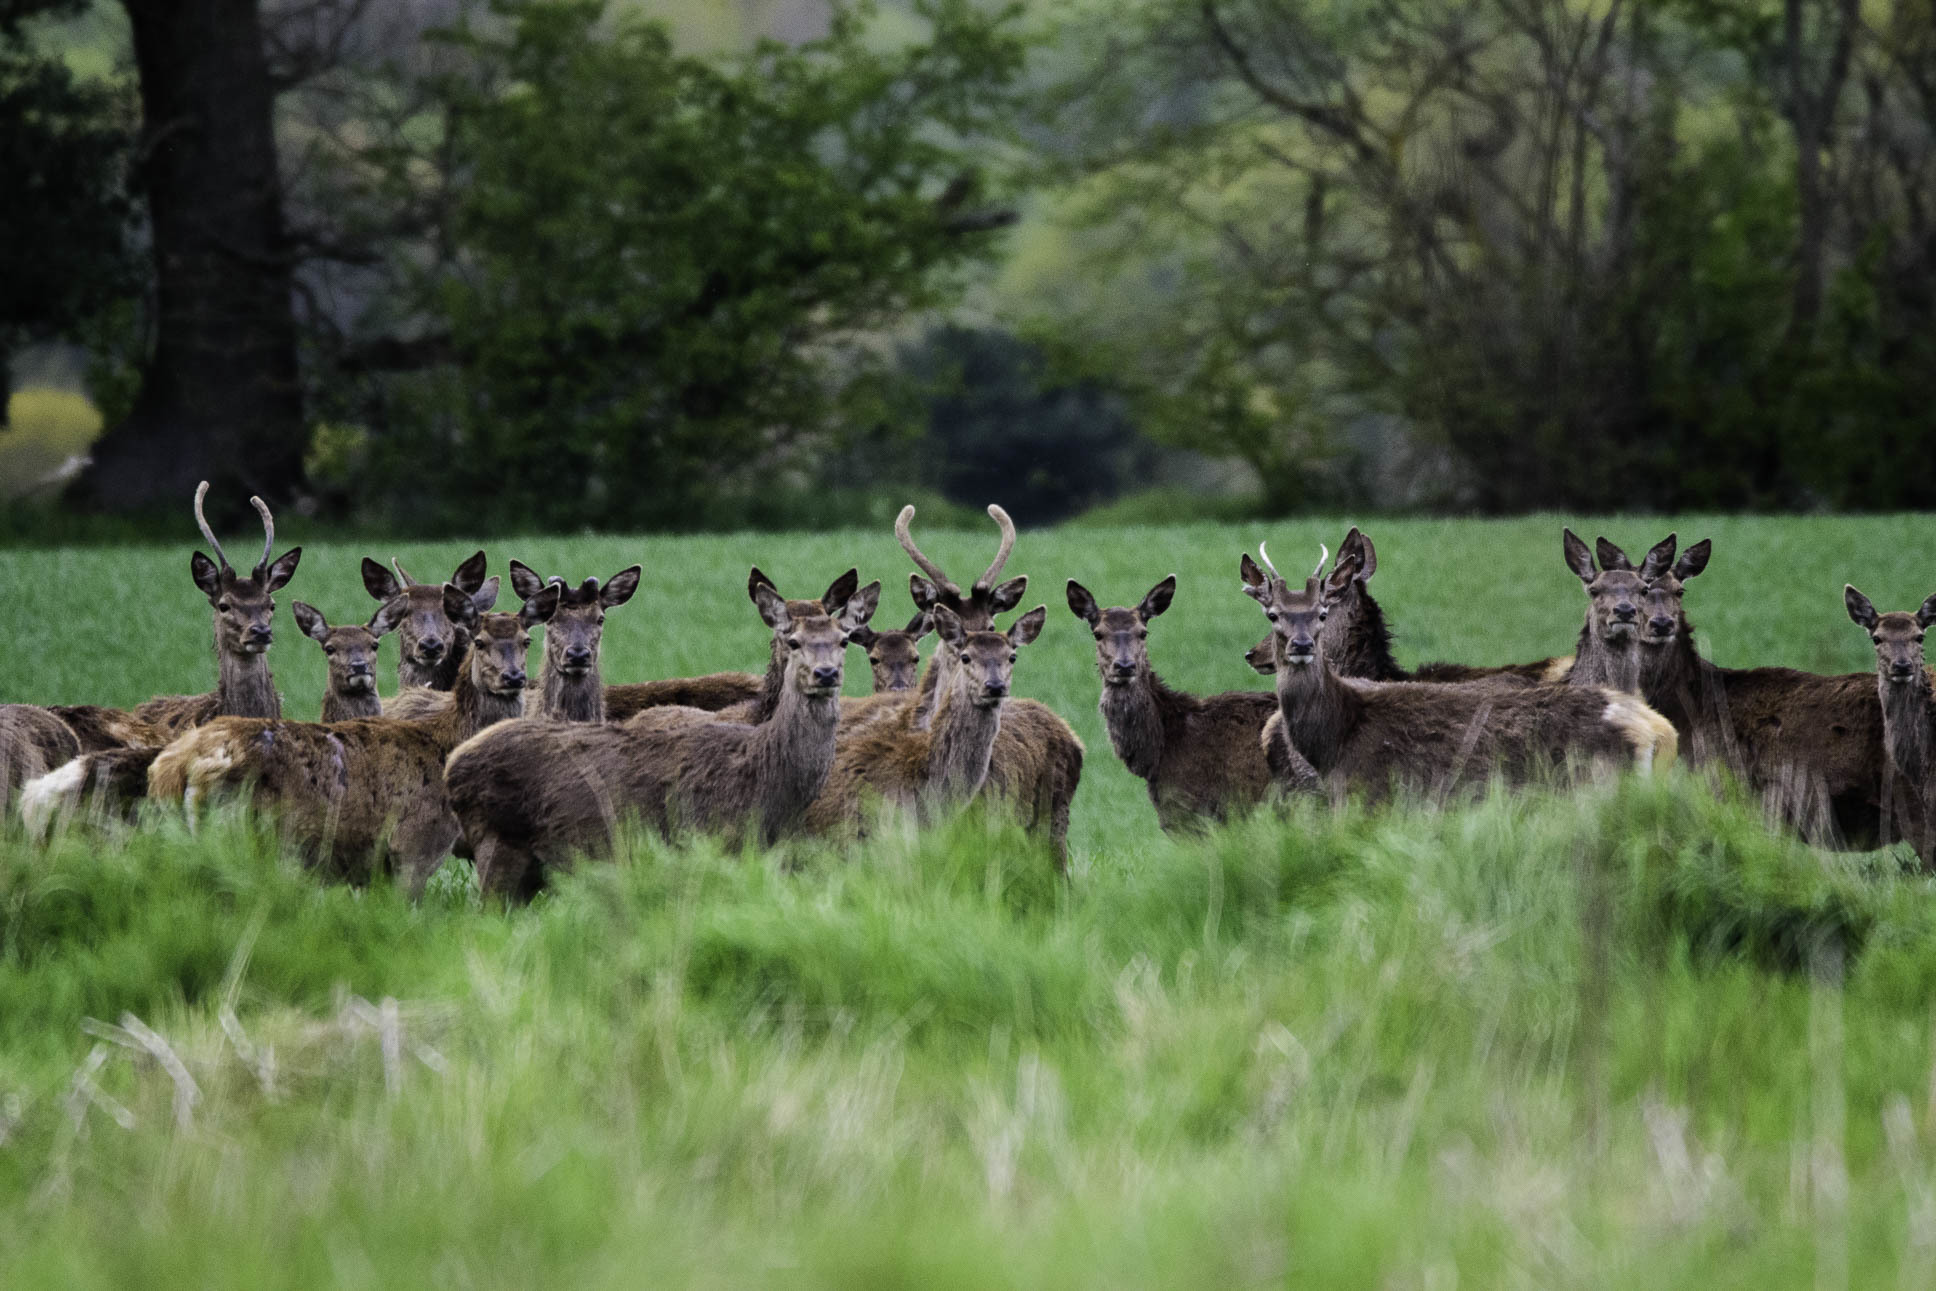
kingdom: Animalia
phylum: Chordata
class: Mammalia
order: Artiodactyla
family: Cervidae
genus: Cervus
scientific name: Cervus elaphus
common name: Red deer
